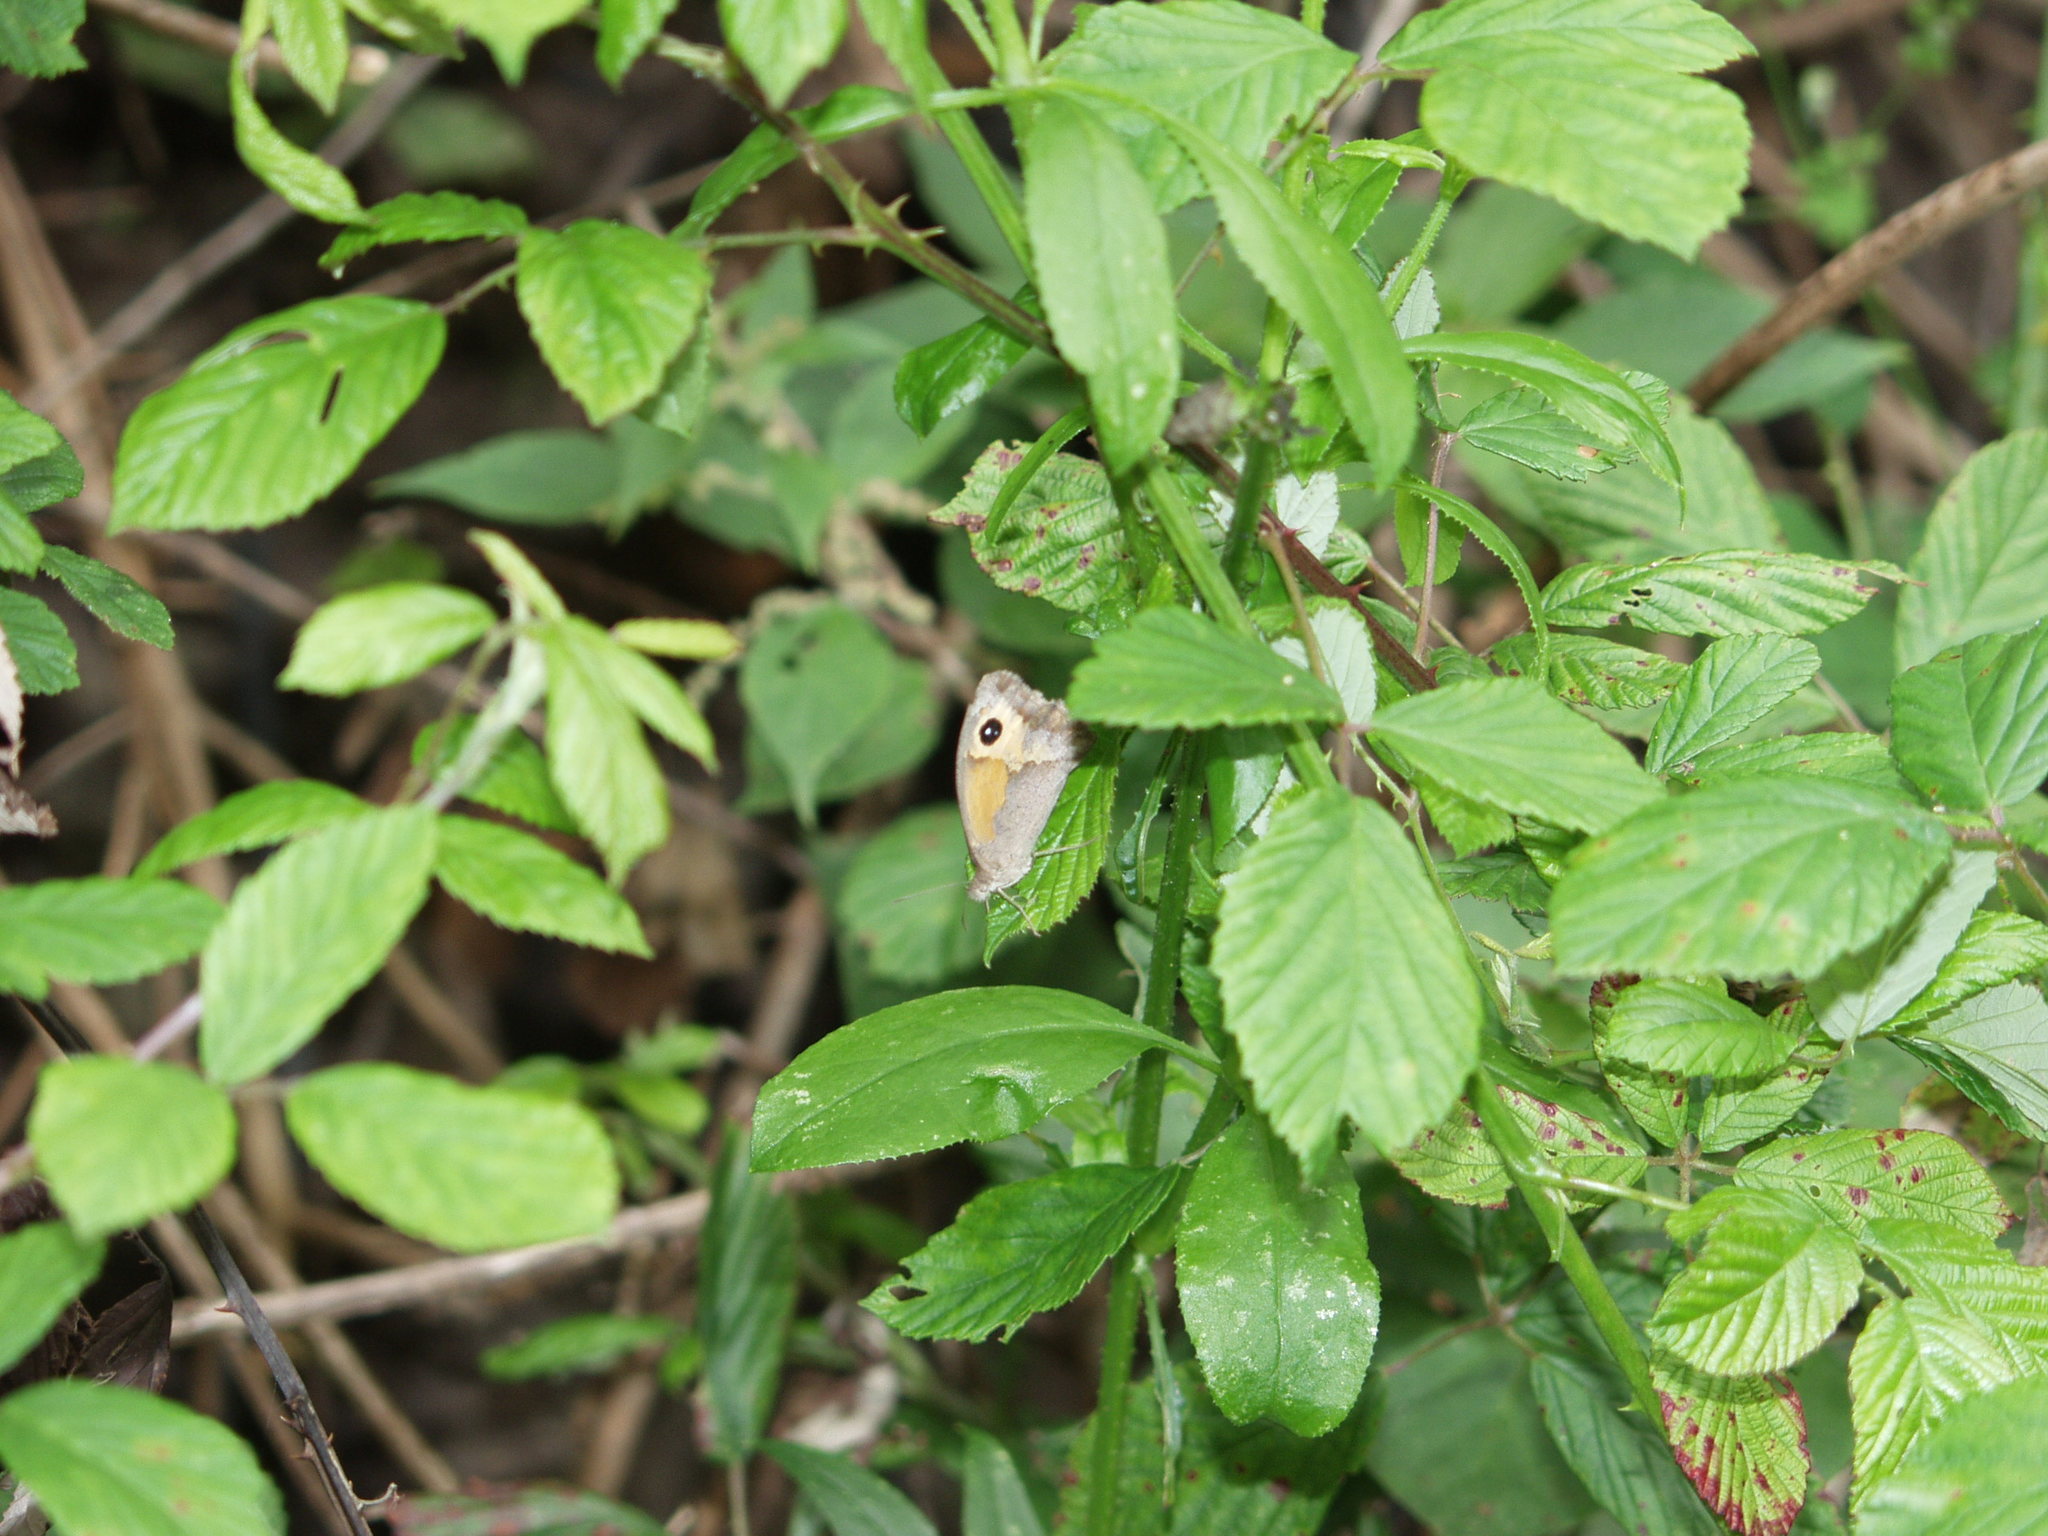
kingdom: Animalia
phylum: Arthropoda
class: Insecta
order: Lepidoptera
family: Nymphalidae
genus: Maniola
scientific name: Maniola jurtina
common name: Meadow brown
